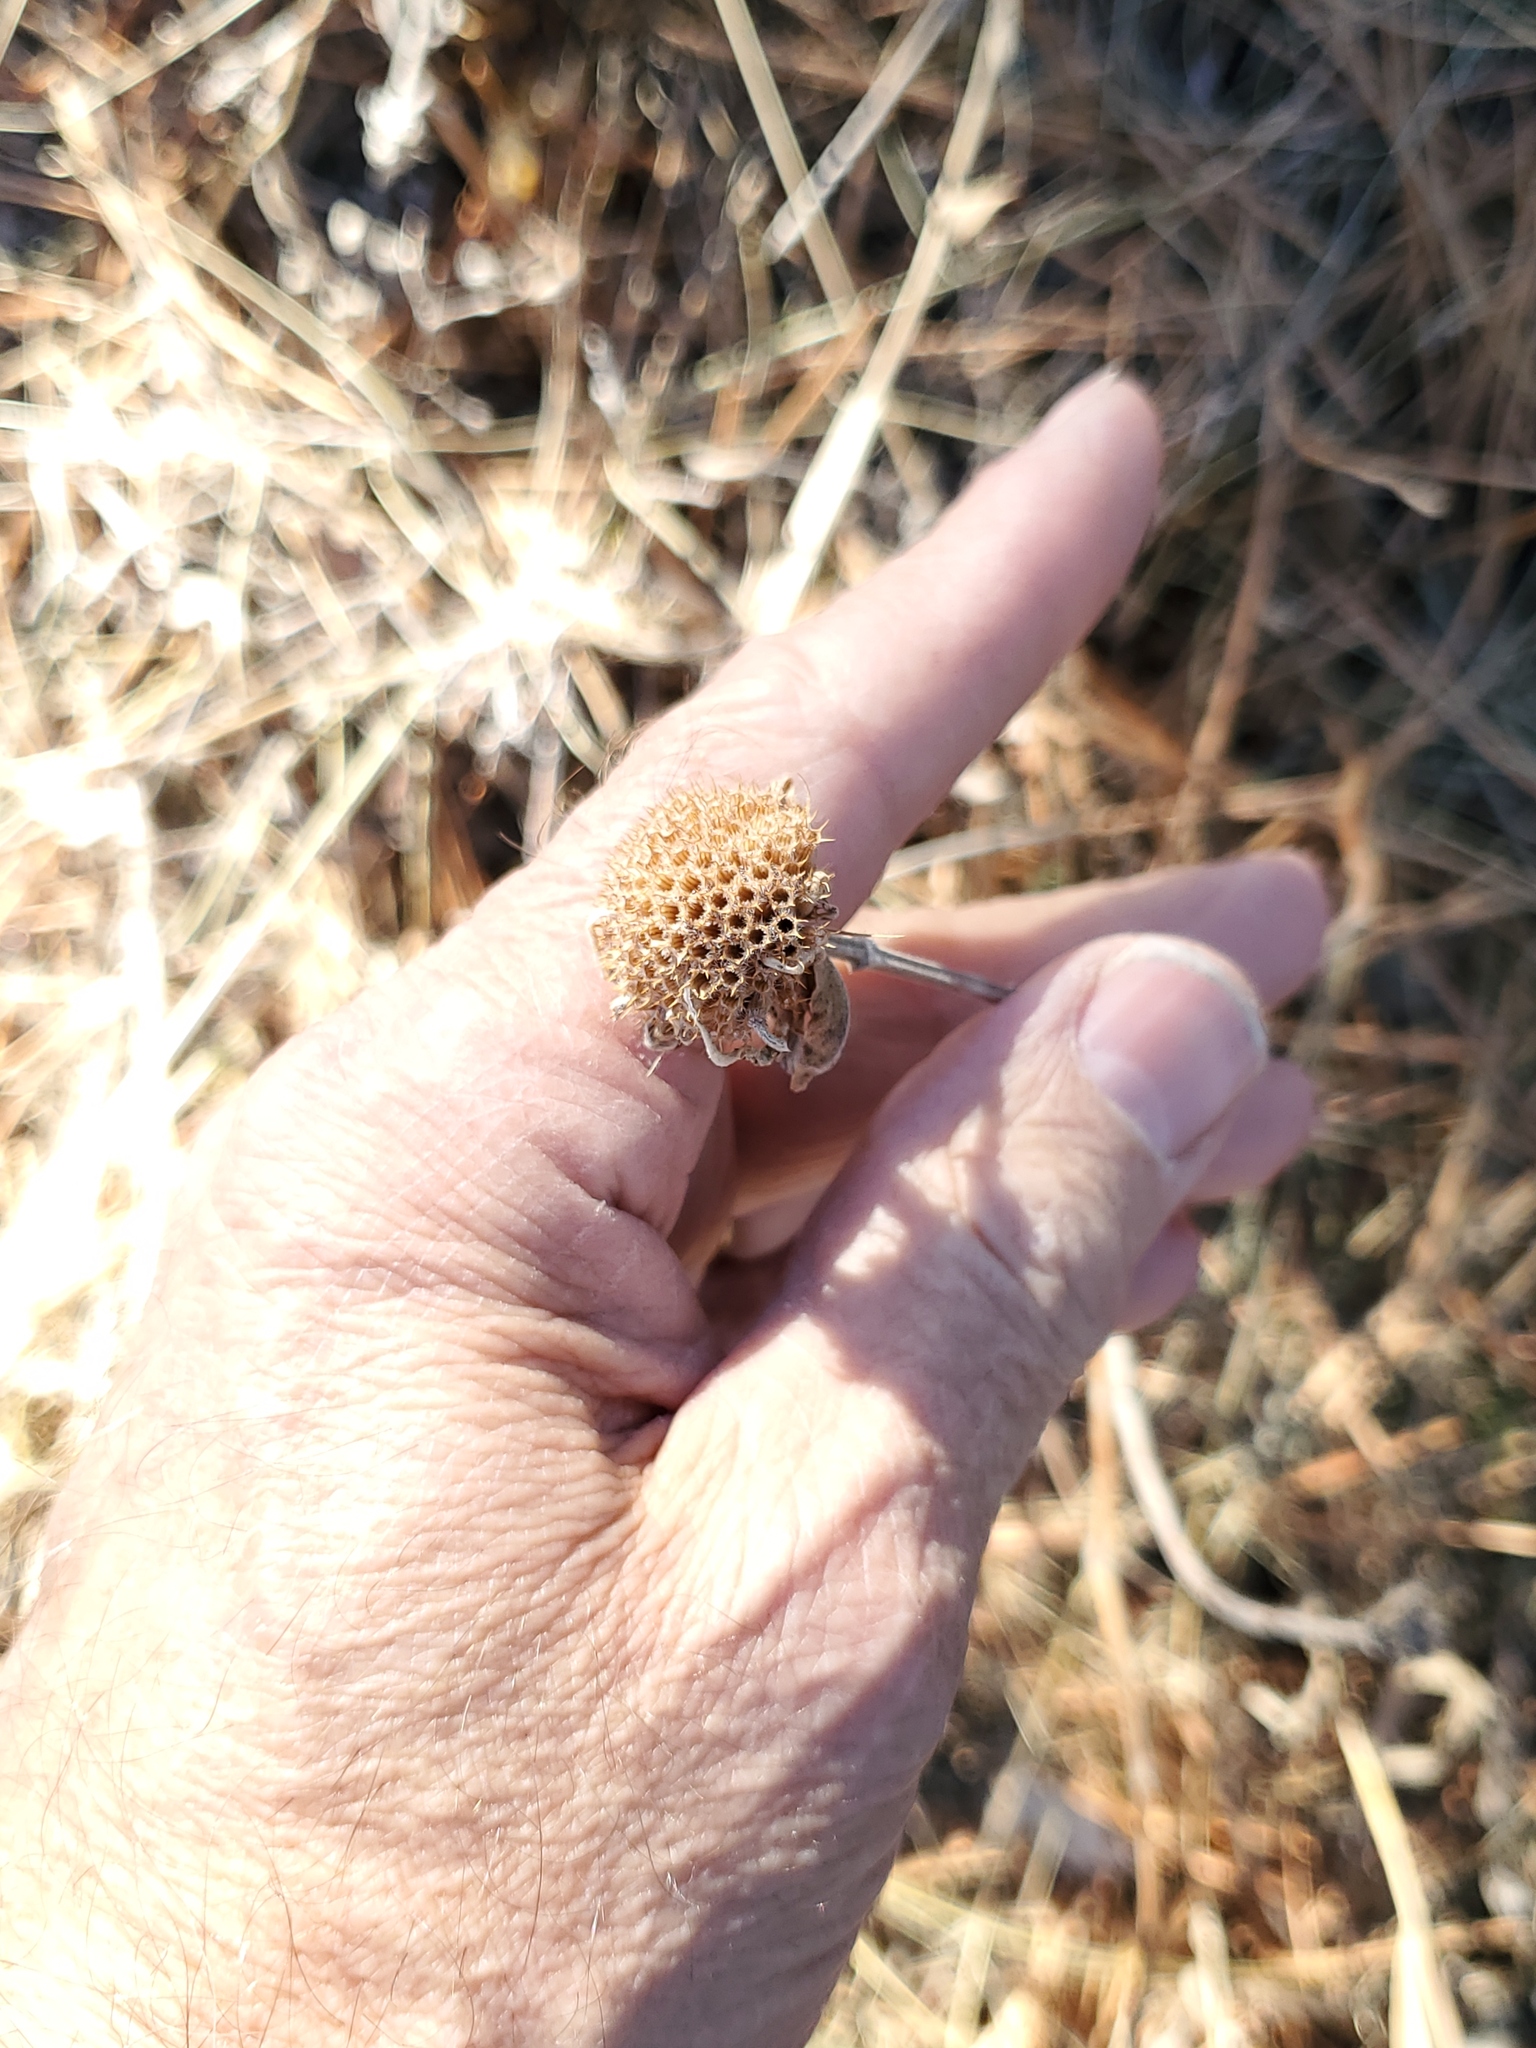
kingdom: Plantae
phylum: Tracheophyta
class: Magnoliopsida
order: Lamiales
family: Lamiaceae
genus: Monarda
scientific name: Monarda fistulosa
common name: Purple beebalm
